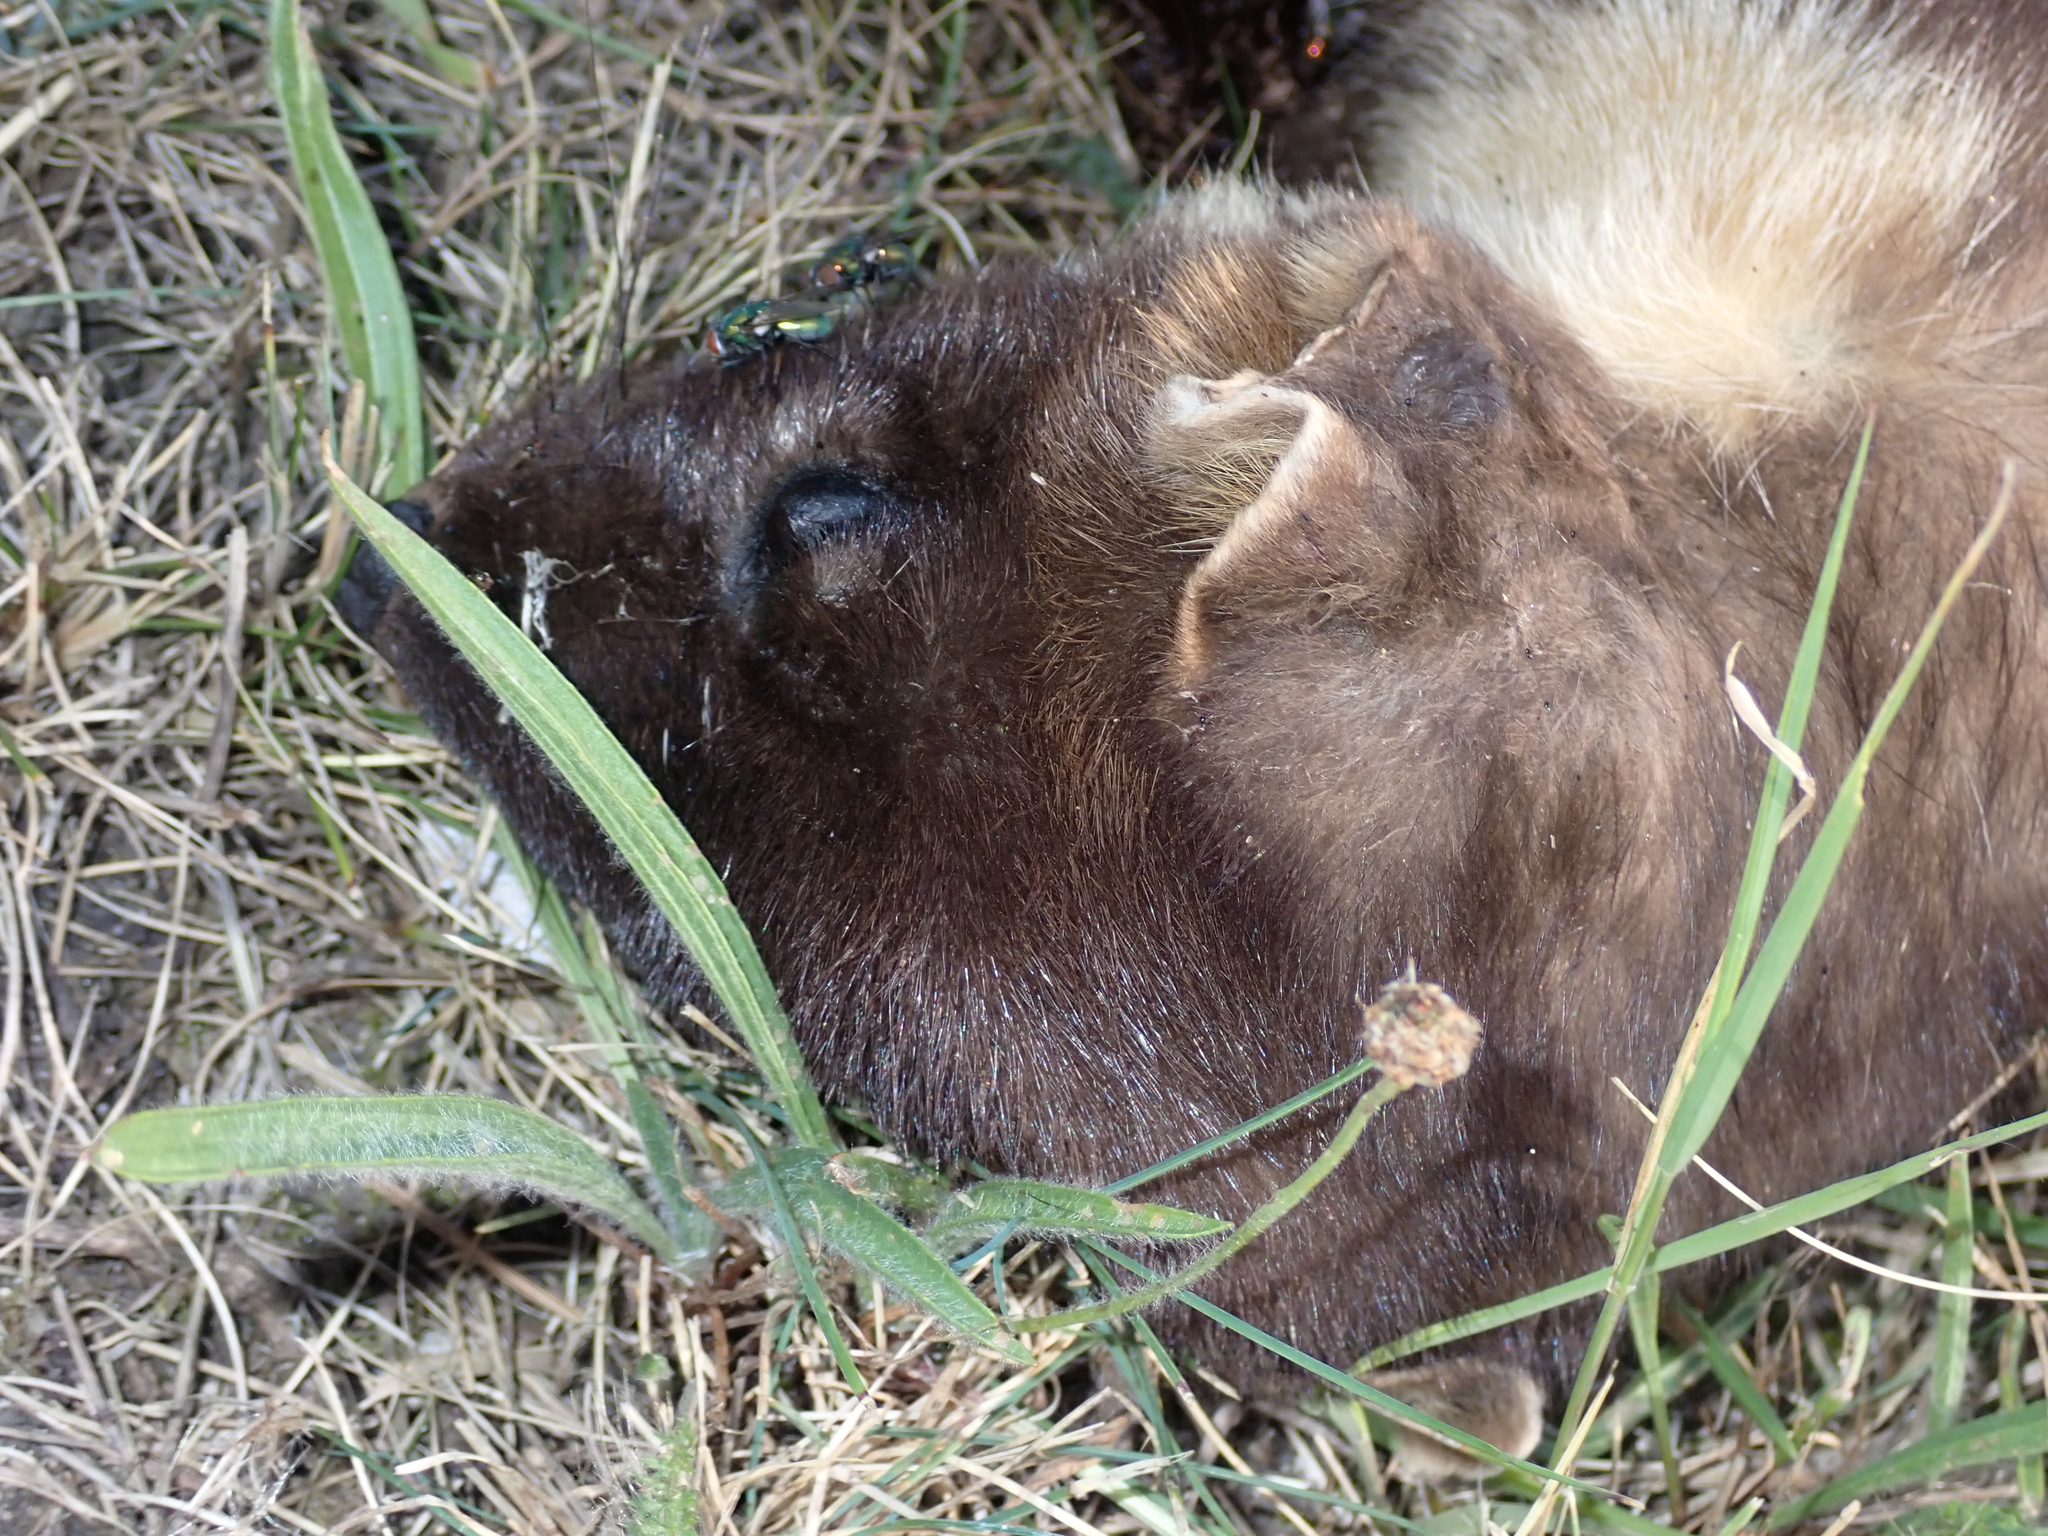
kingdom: Animalia
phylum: Chordata
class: Mammalia
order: Carnivora
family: Mustelidae
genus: Martes
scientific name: Martes foina
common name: Beech marten
